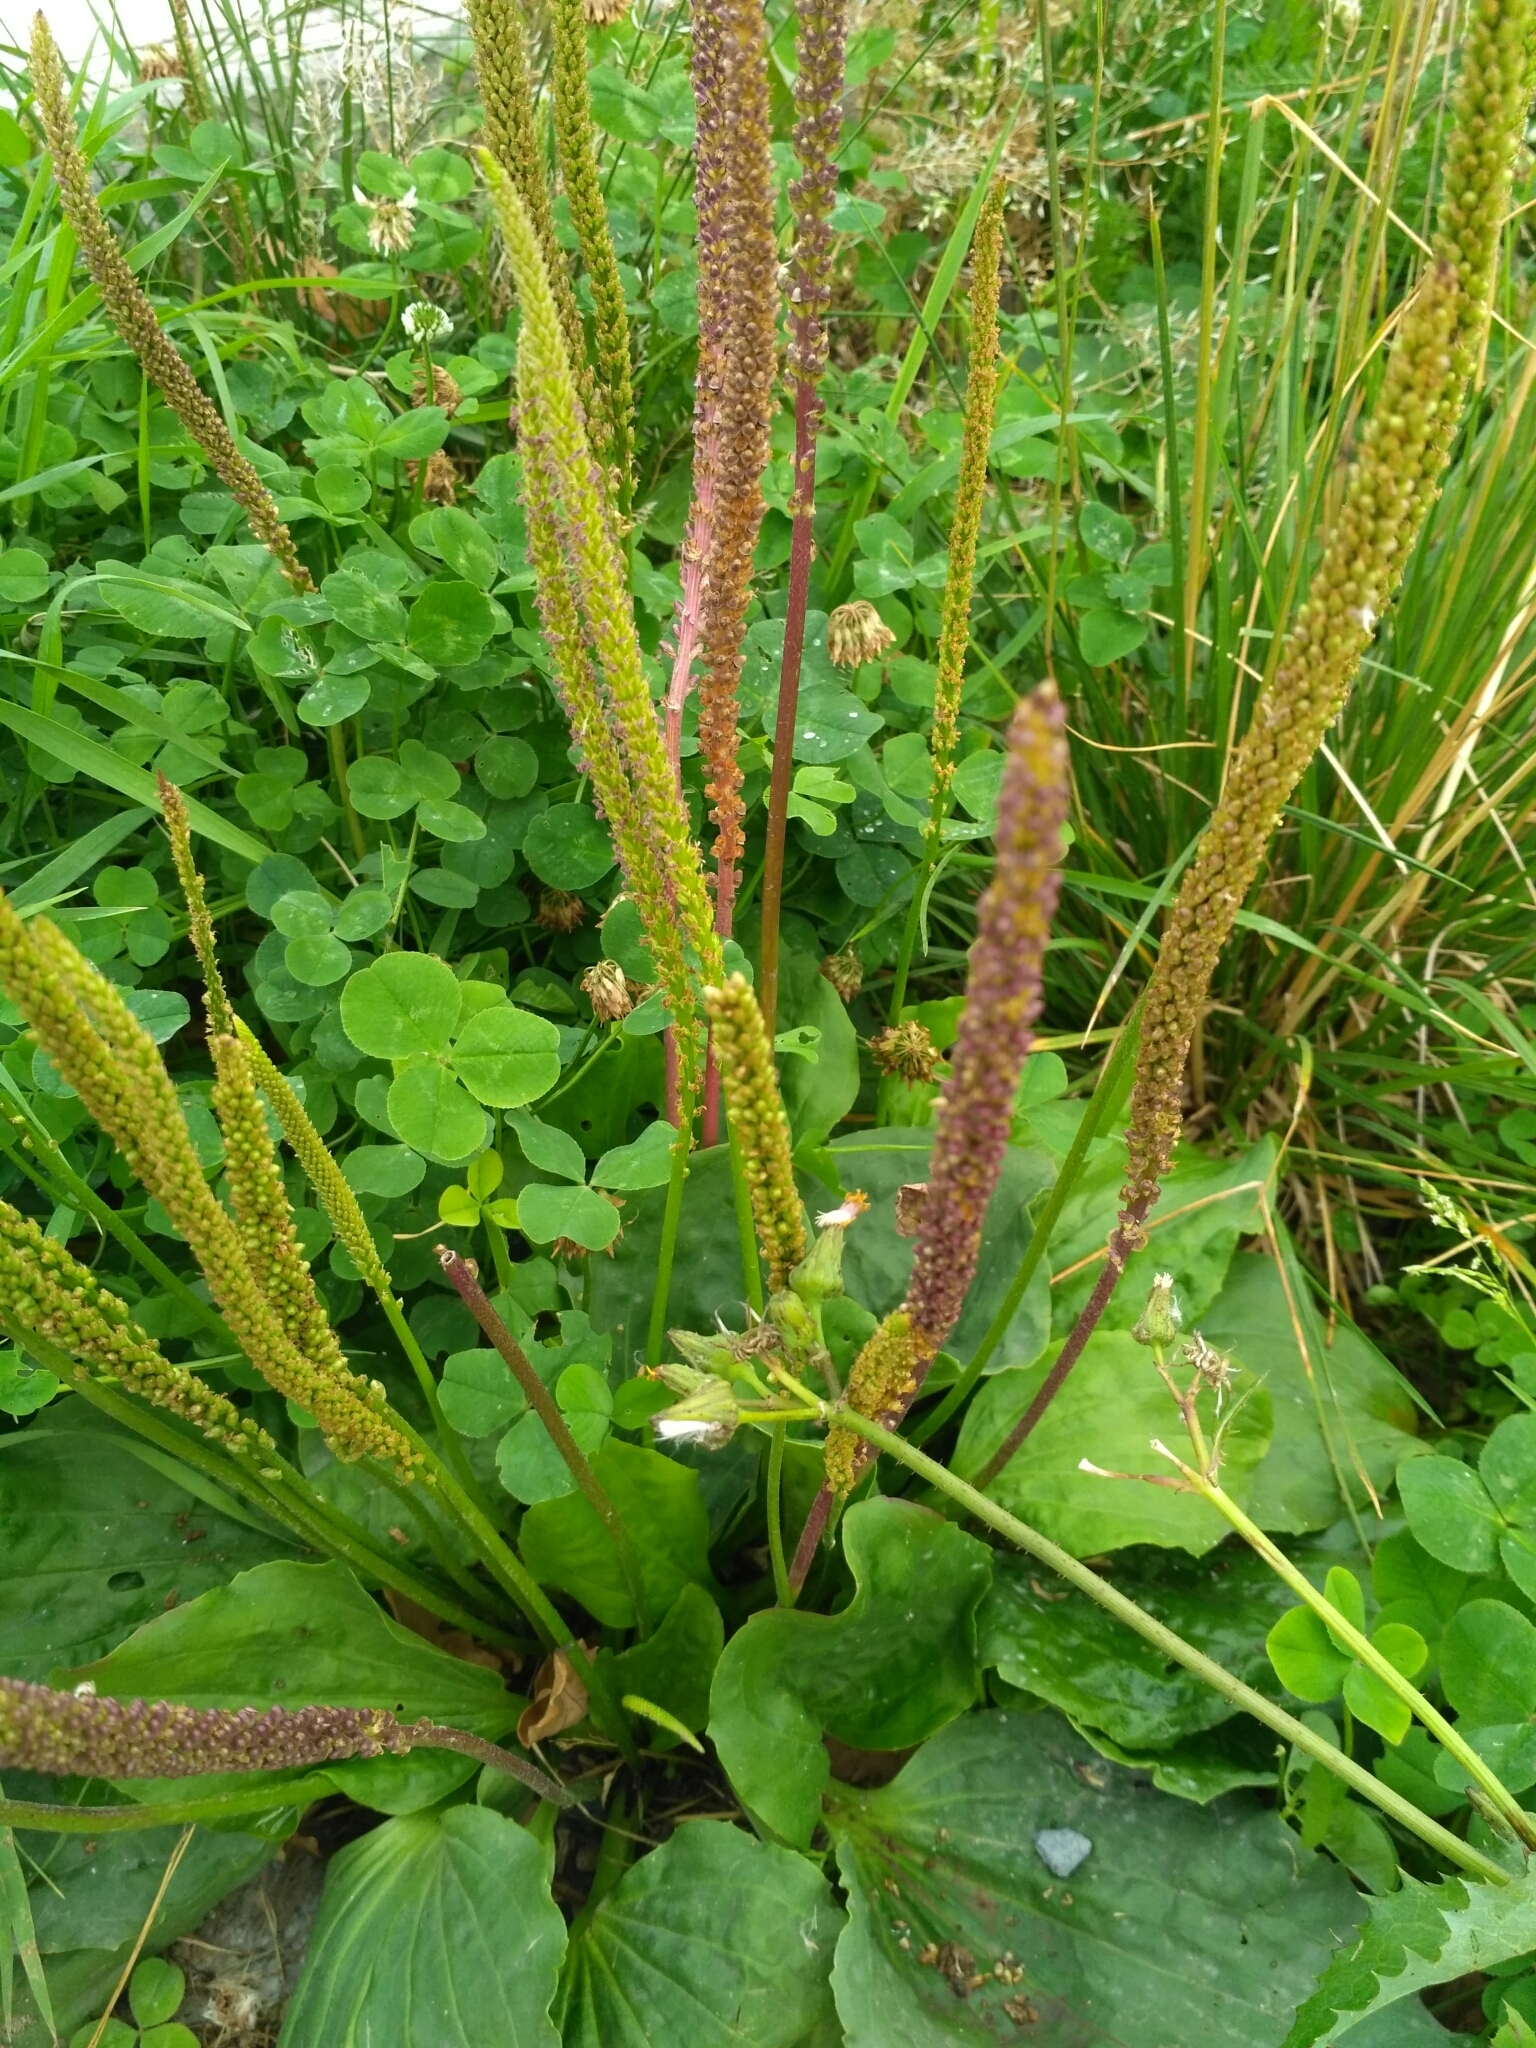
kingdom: Plantae
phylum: Tracheophyta
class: Magnoliopsida
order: Lamiales
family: Plantaginaceae
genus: Plantago
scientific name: Plantago major
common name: Common plantain
